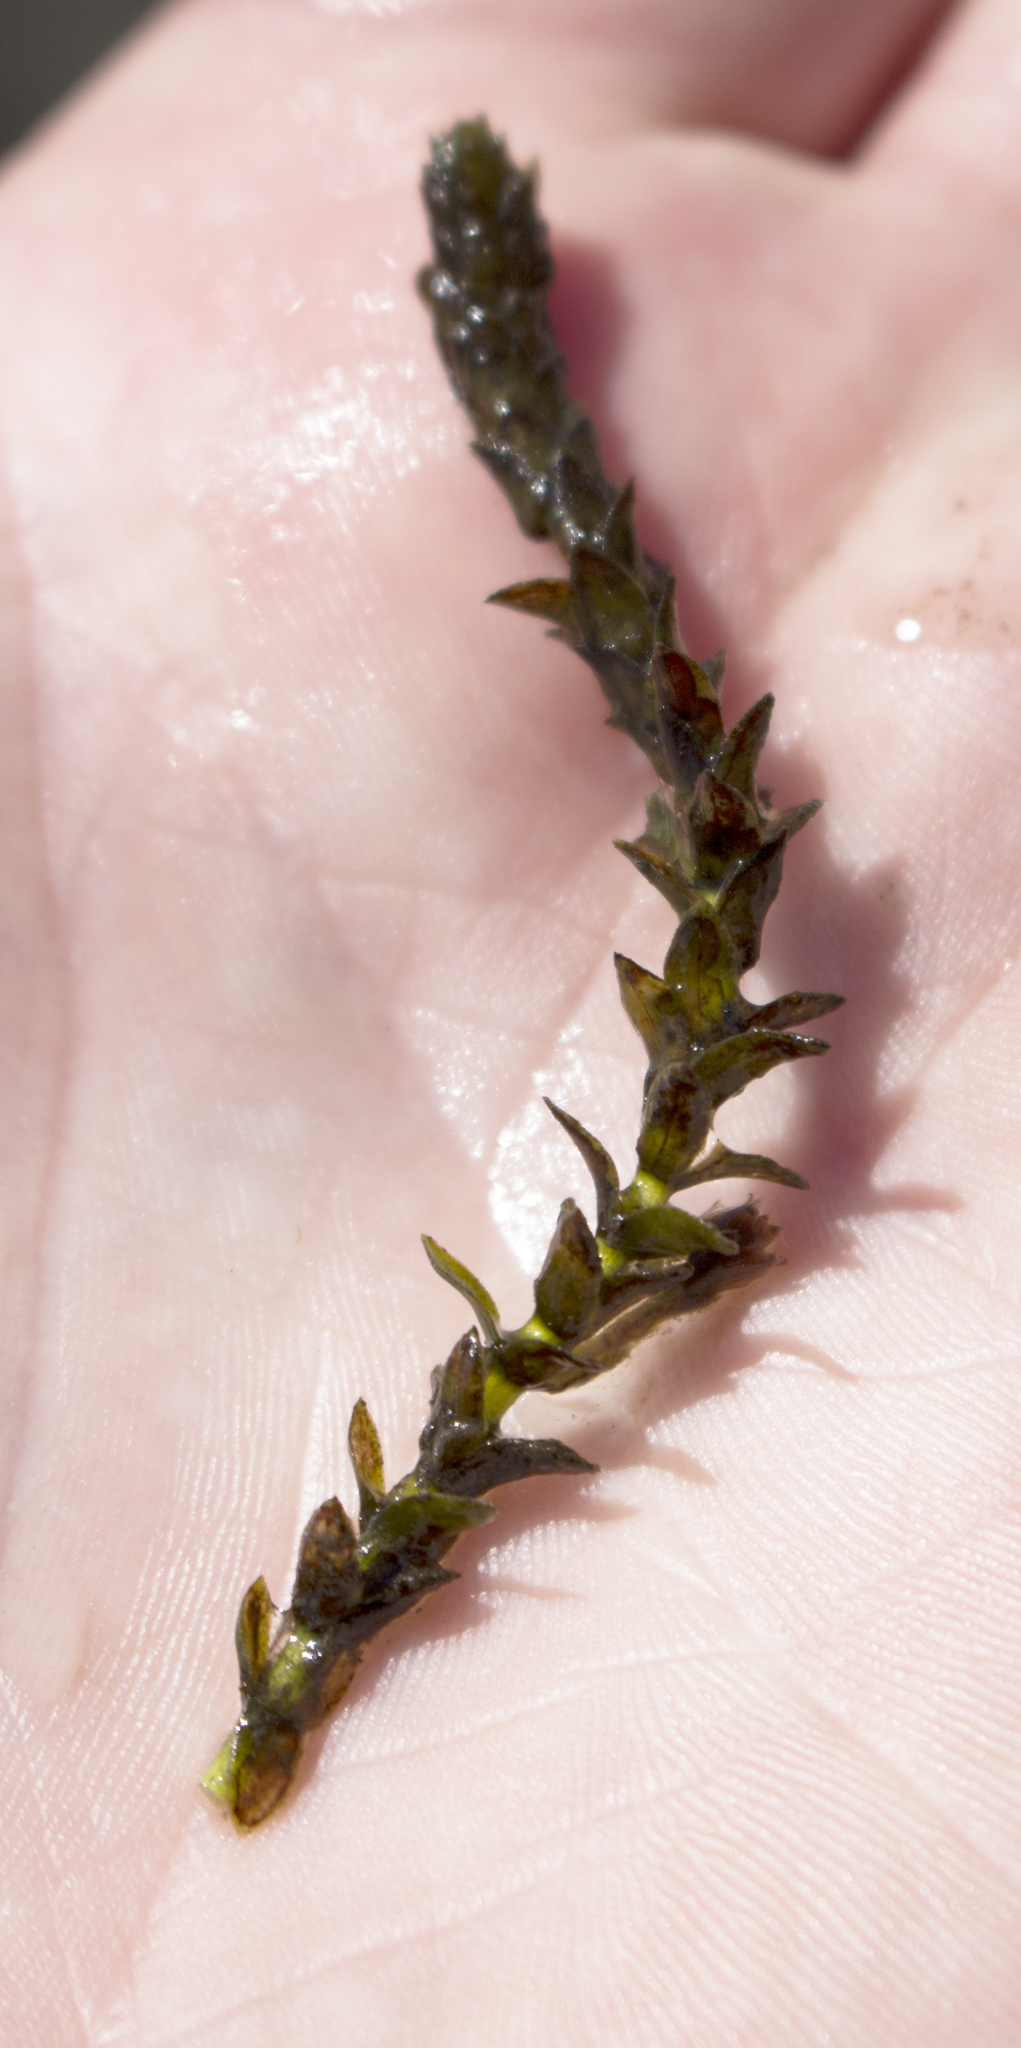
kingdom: Plantae
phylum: Tracheophyta
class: Liliopsida
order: Alismatales
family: Hydrocharitaceae
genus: Elodea
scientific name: Elodea canadensis
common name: Canadian waterweed
